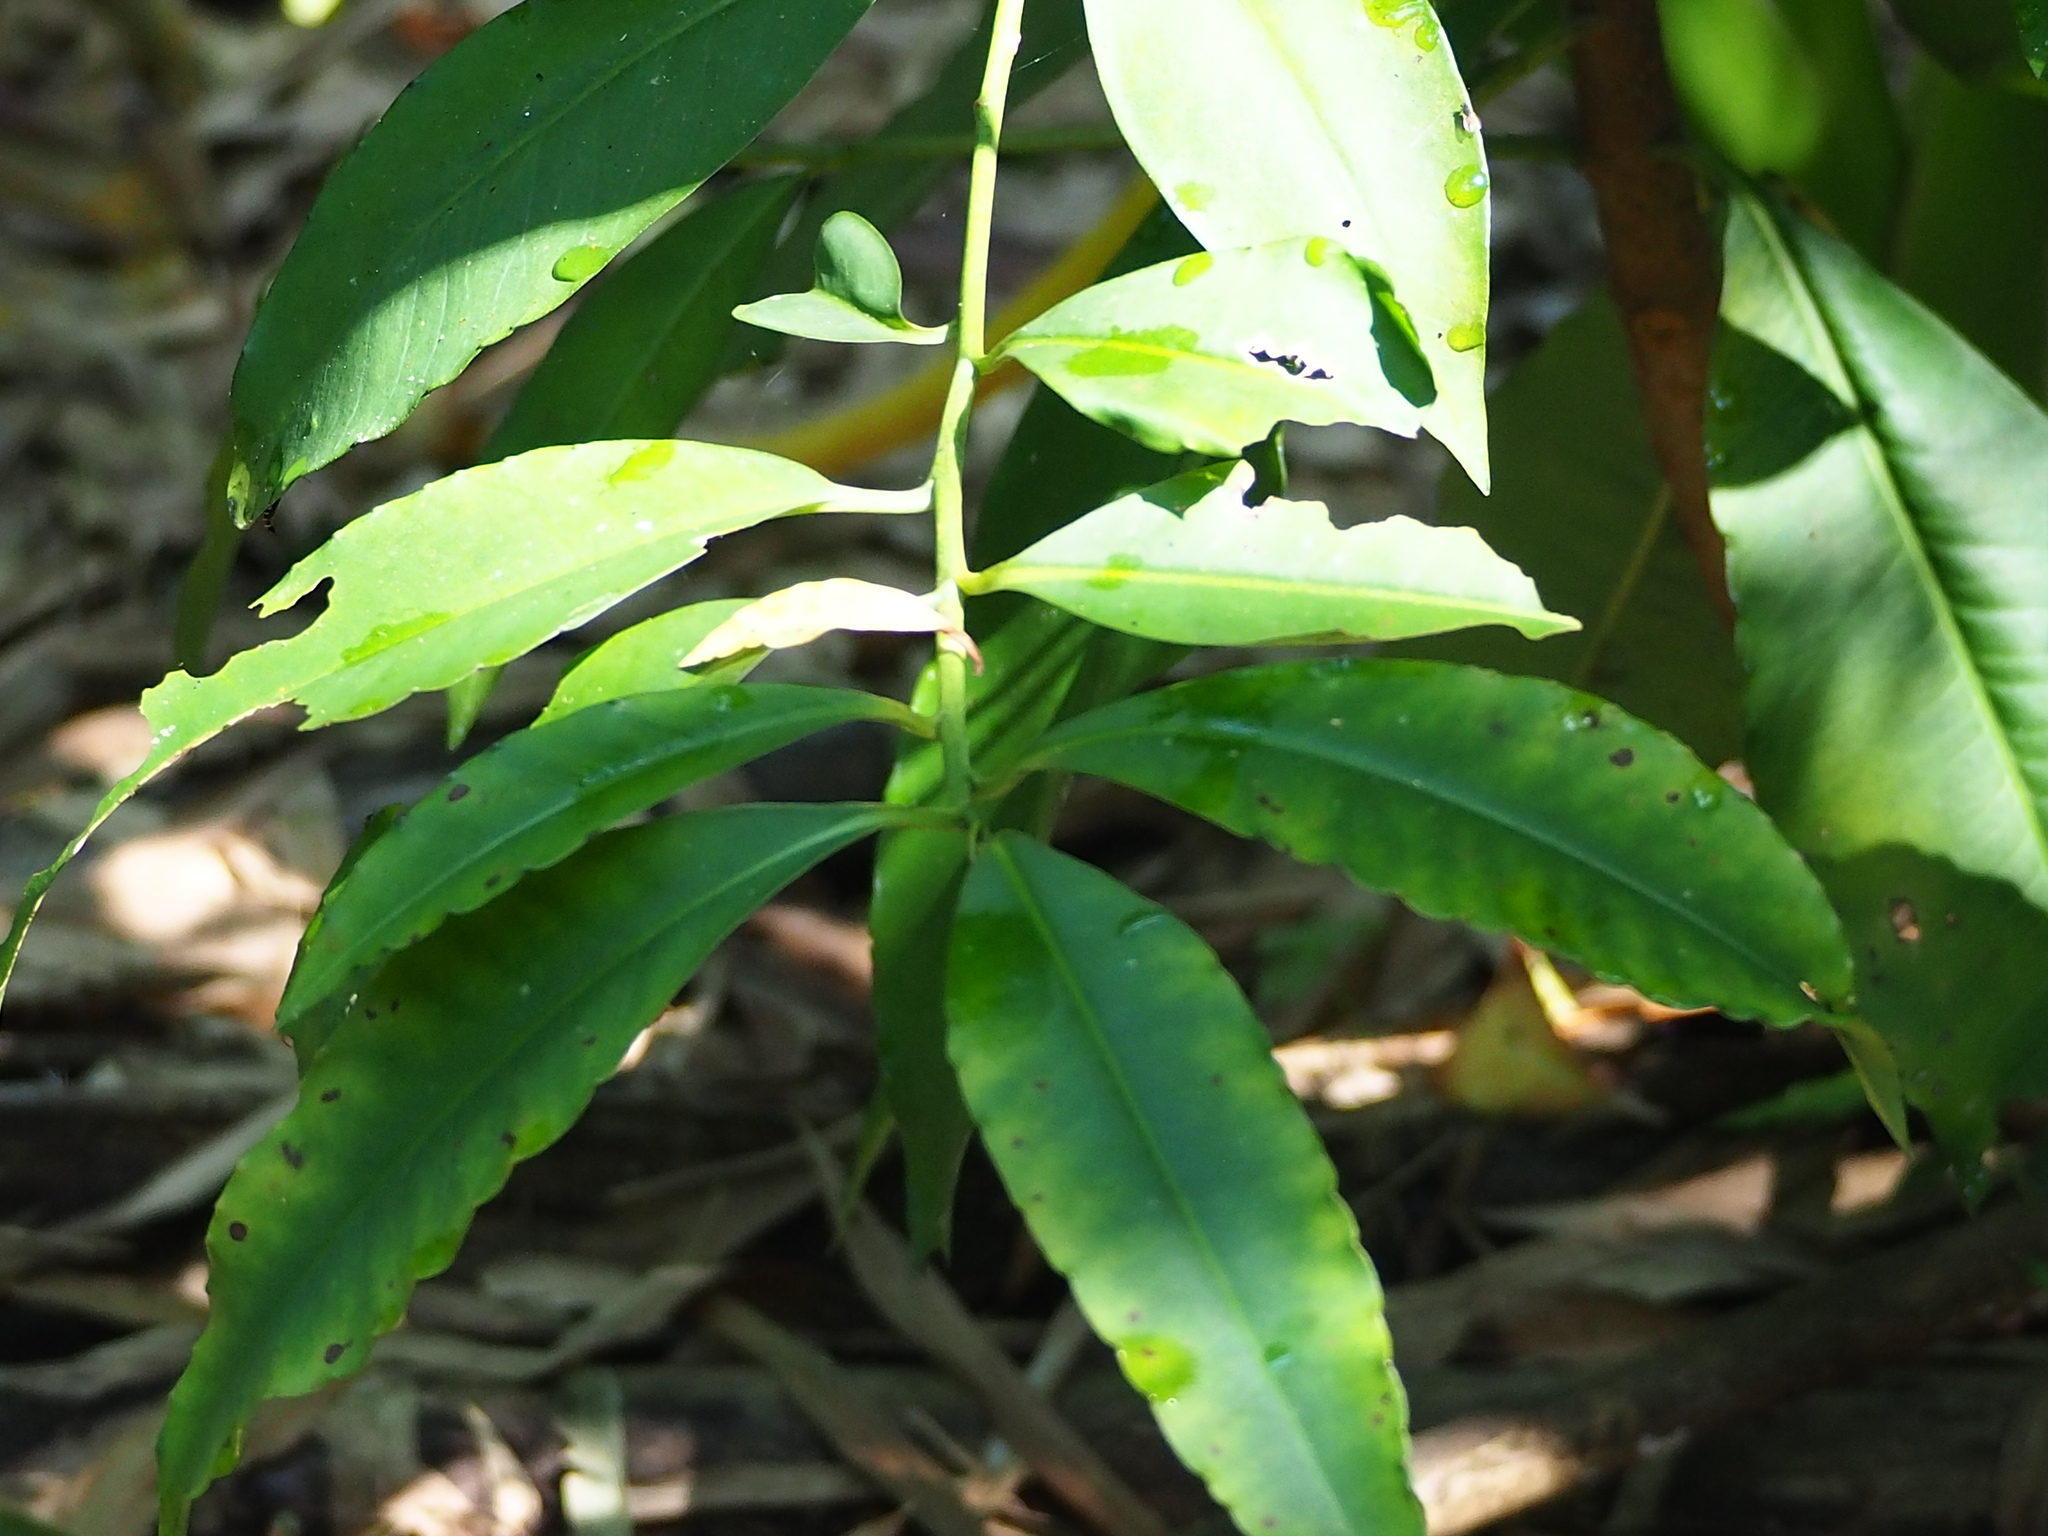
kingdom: Plantae
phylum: Tracheophyta
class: Magnoliopsida
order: Ericales
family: Primulaceae
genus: Ardisia
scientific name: Ardisia polysticta
